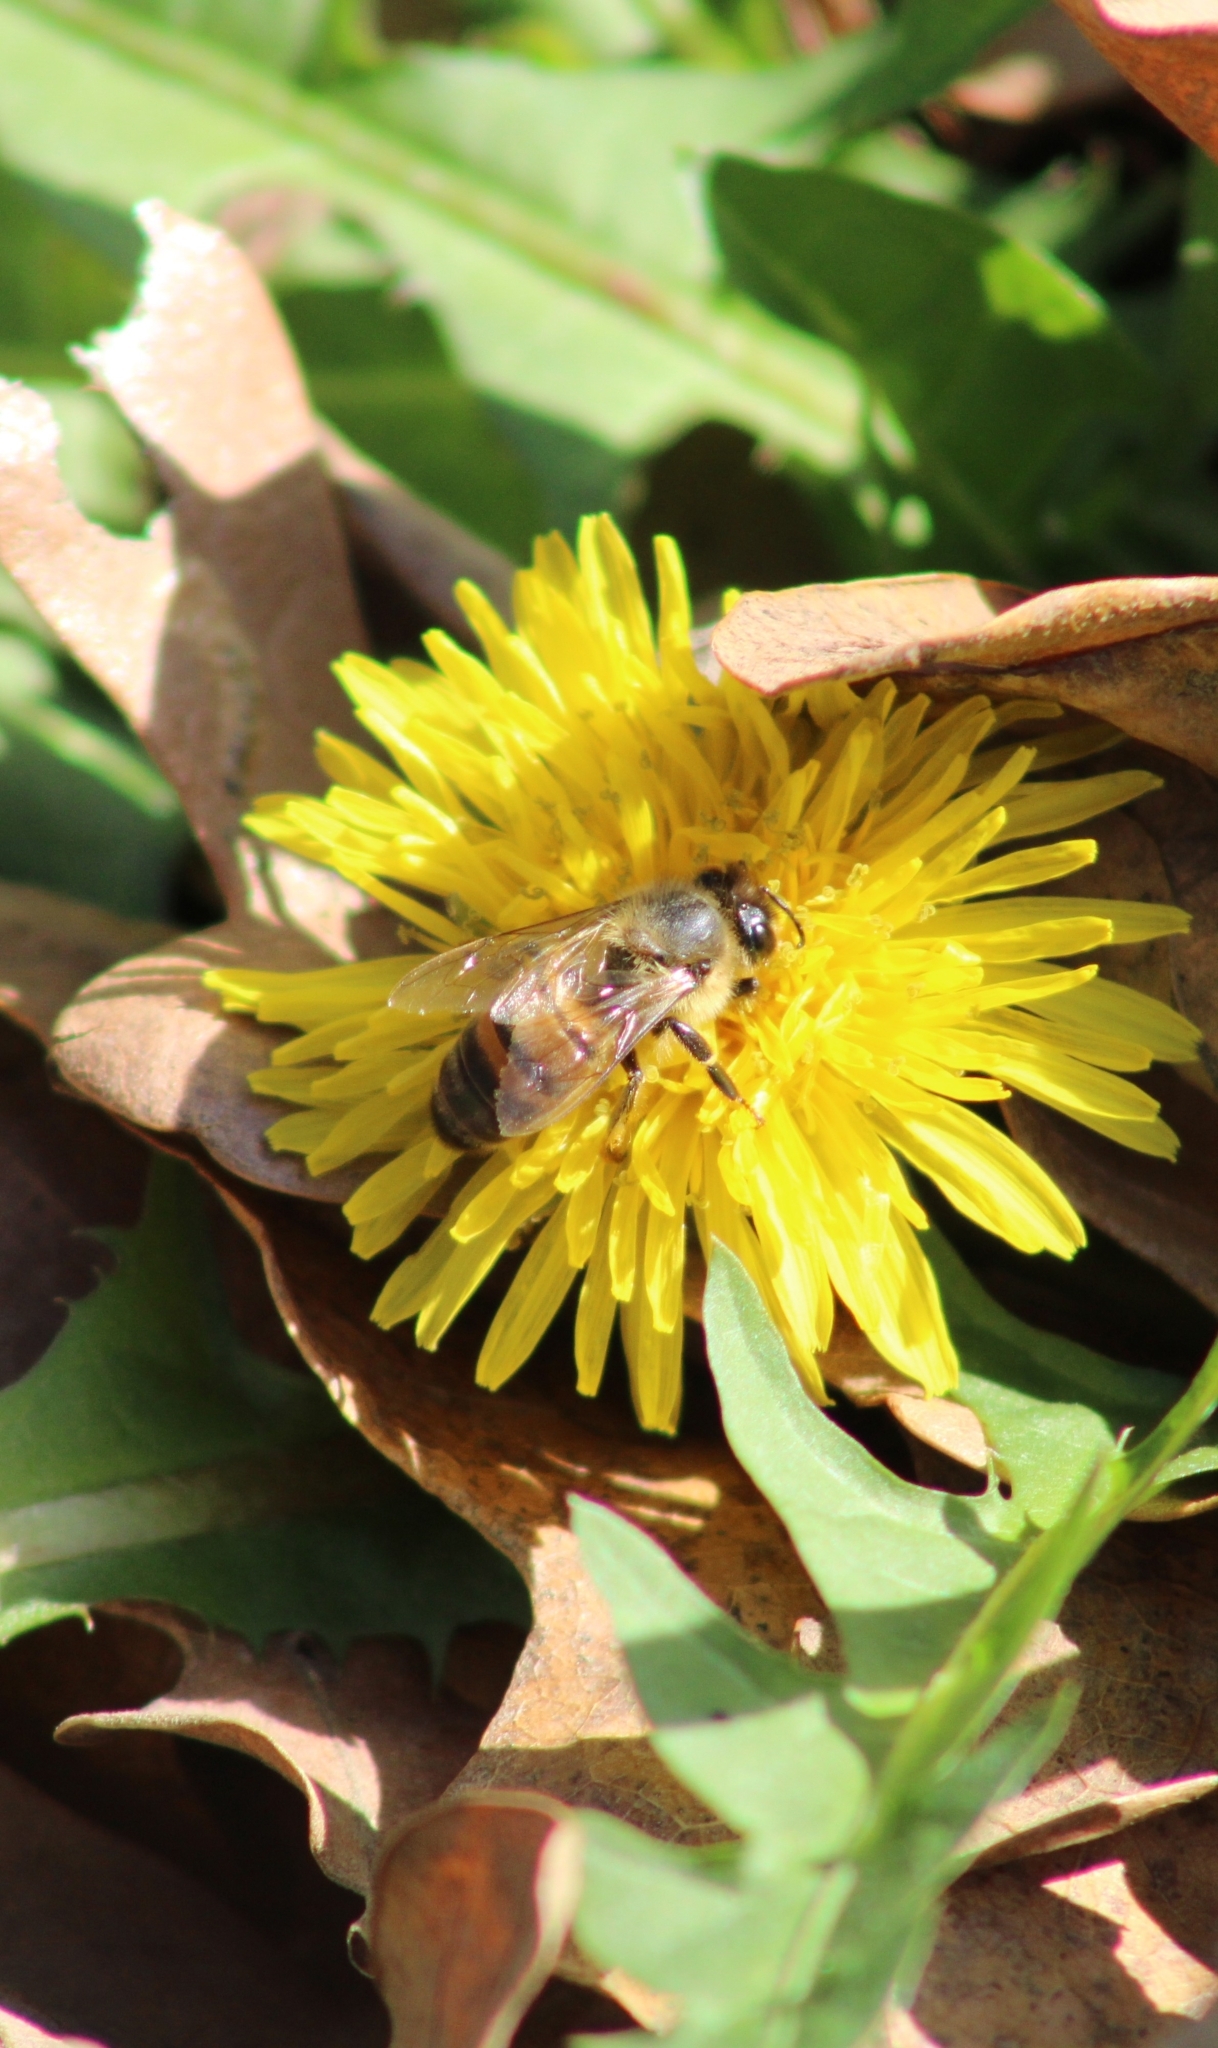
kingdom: Animalia
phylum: Arthropoda
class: Insecta
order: Hymenoptera
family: Apidae
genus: Apis
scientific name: Apis mellifera
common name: Honey bee
